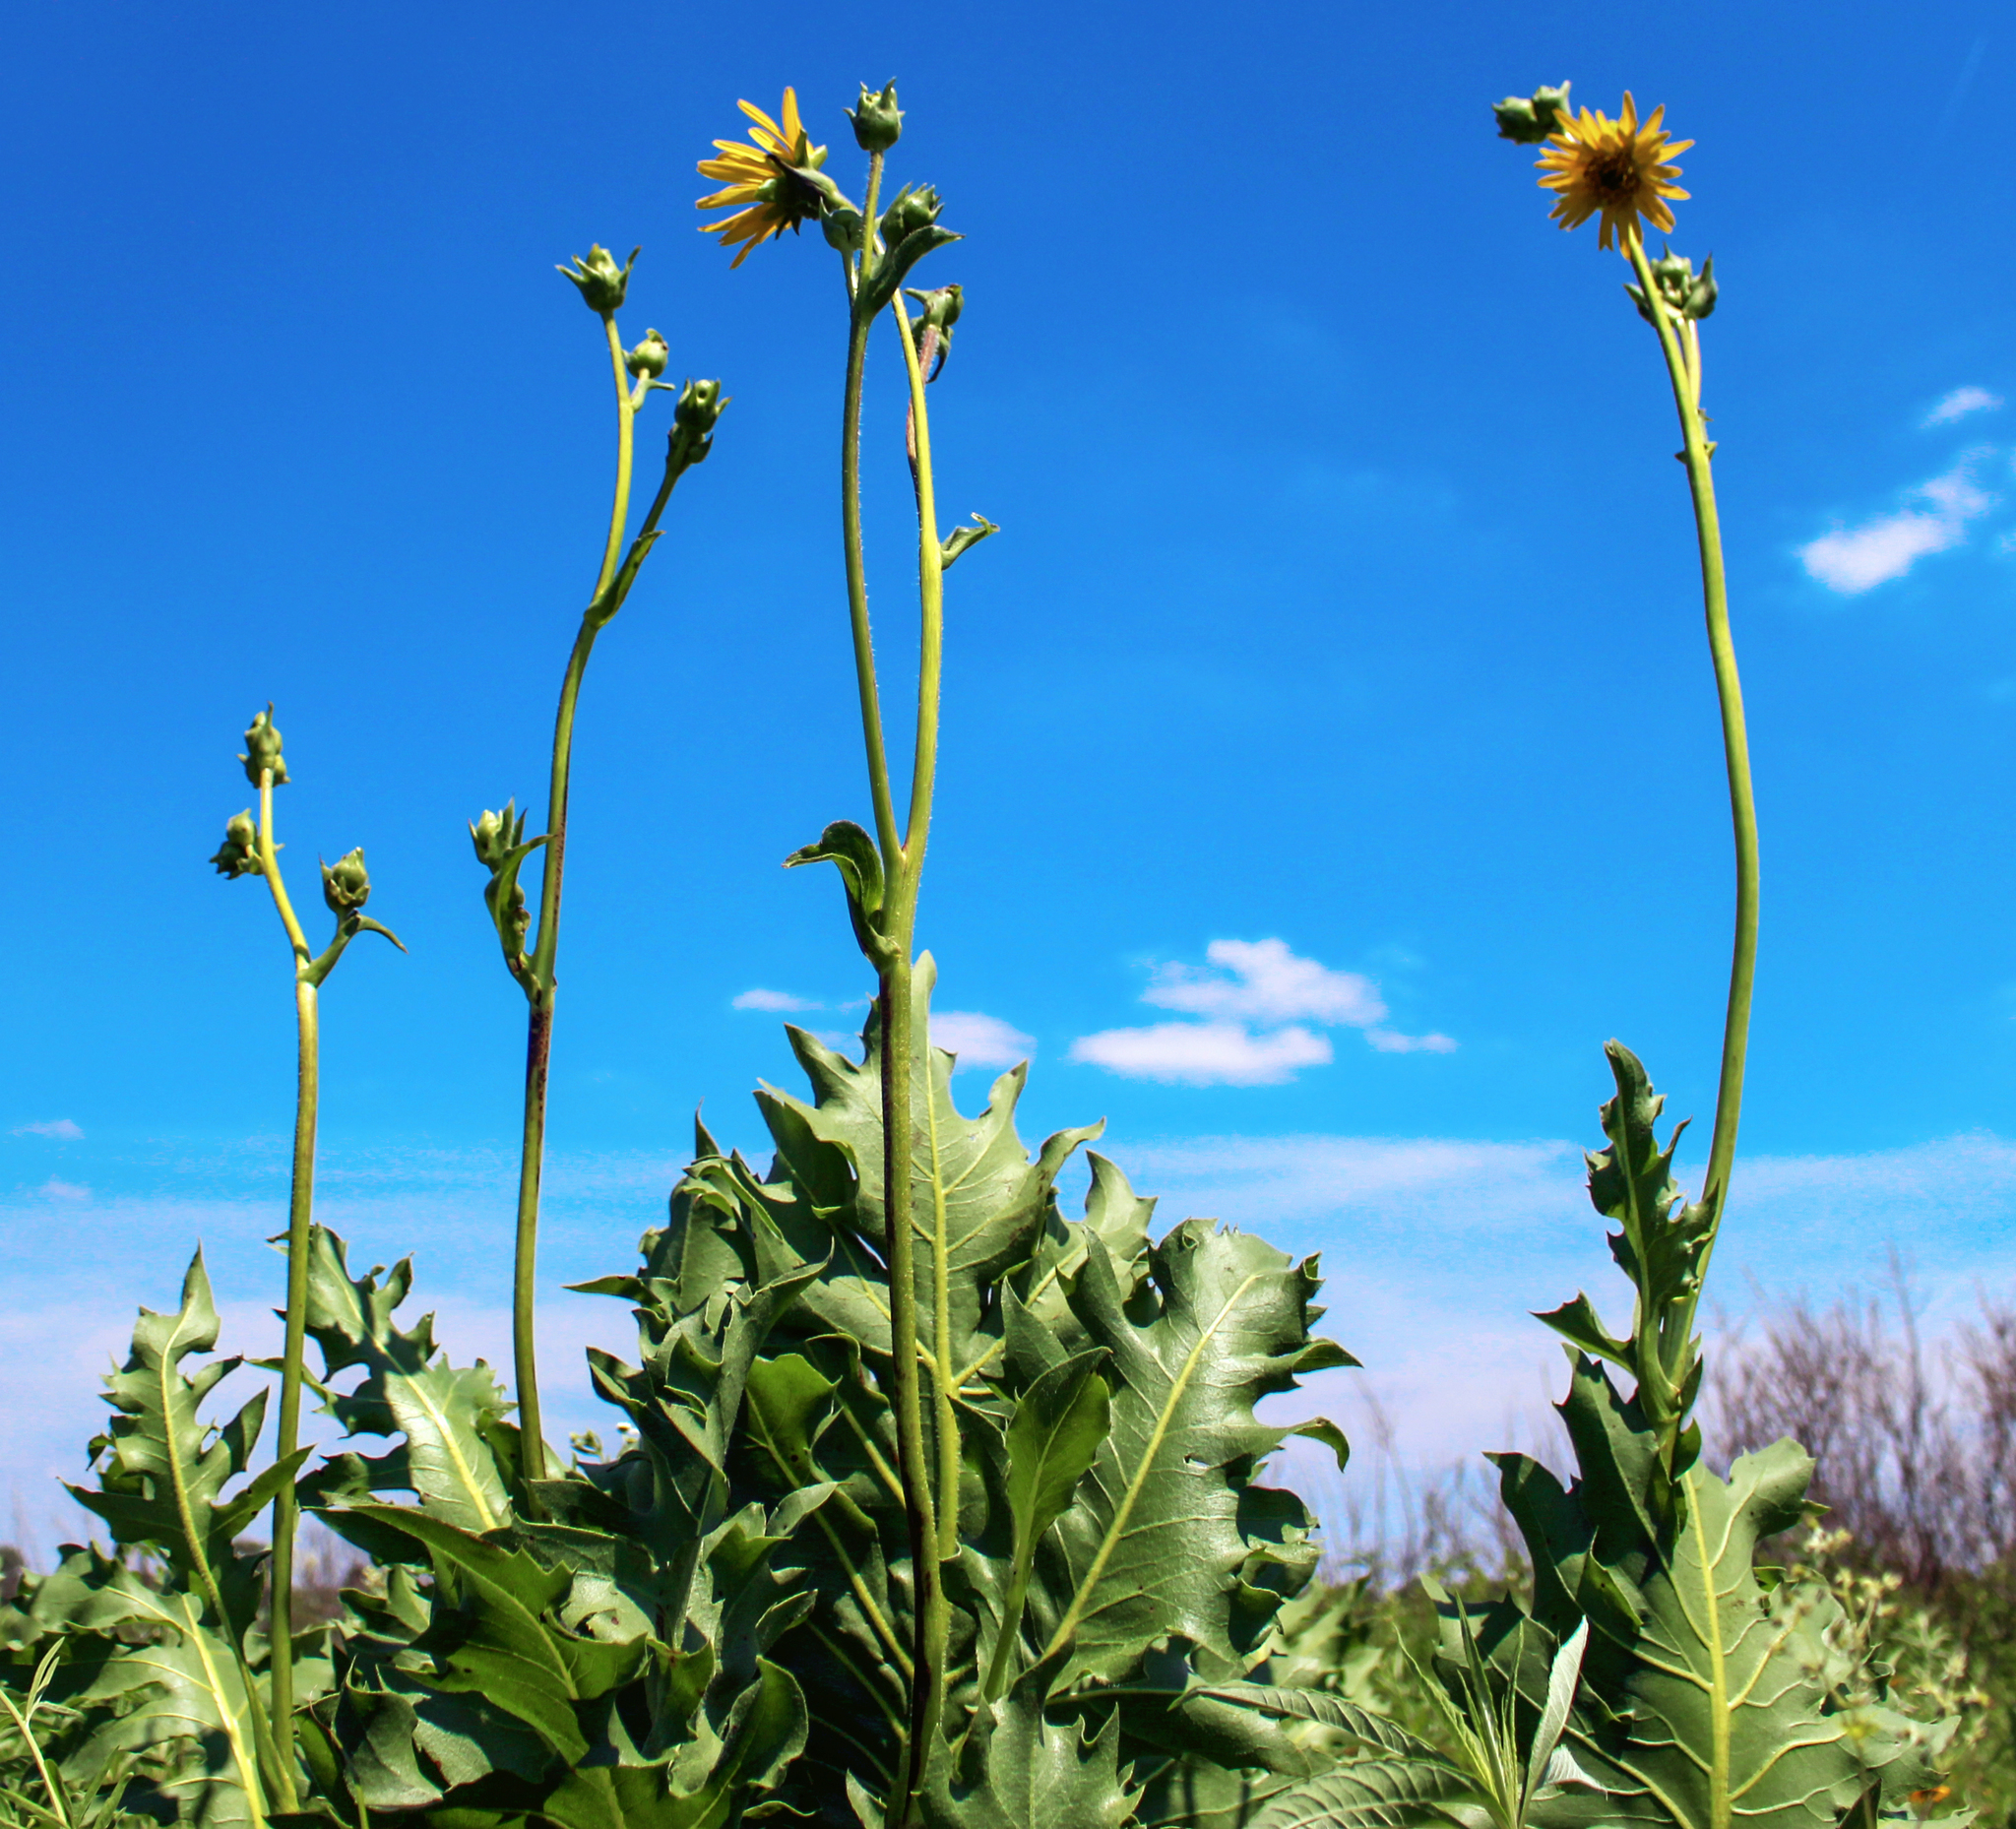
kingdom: Plantae
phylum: Tracheophyta
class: Magnoliopsida
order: Asterales
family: Asteraceae
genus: Silphium
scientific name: Silphium laciniatum
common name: Polarplant
